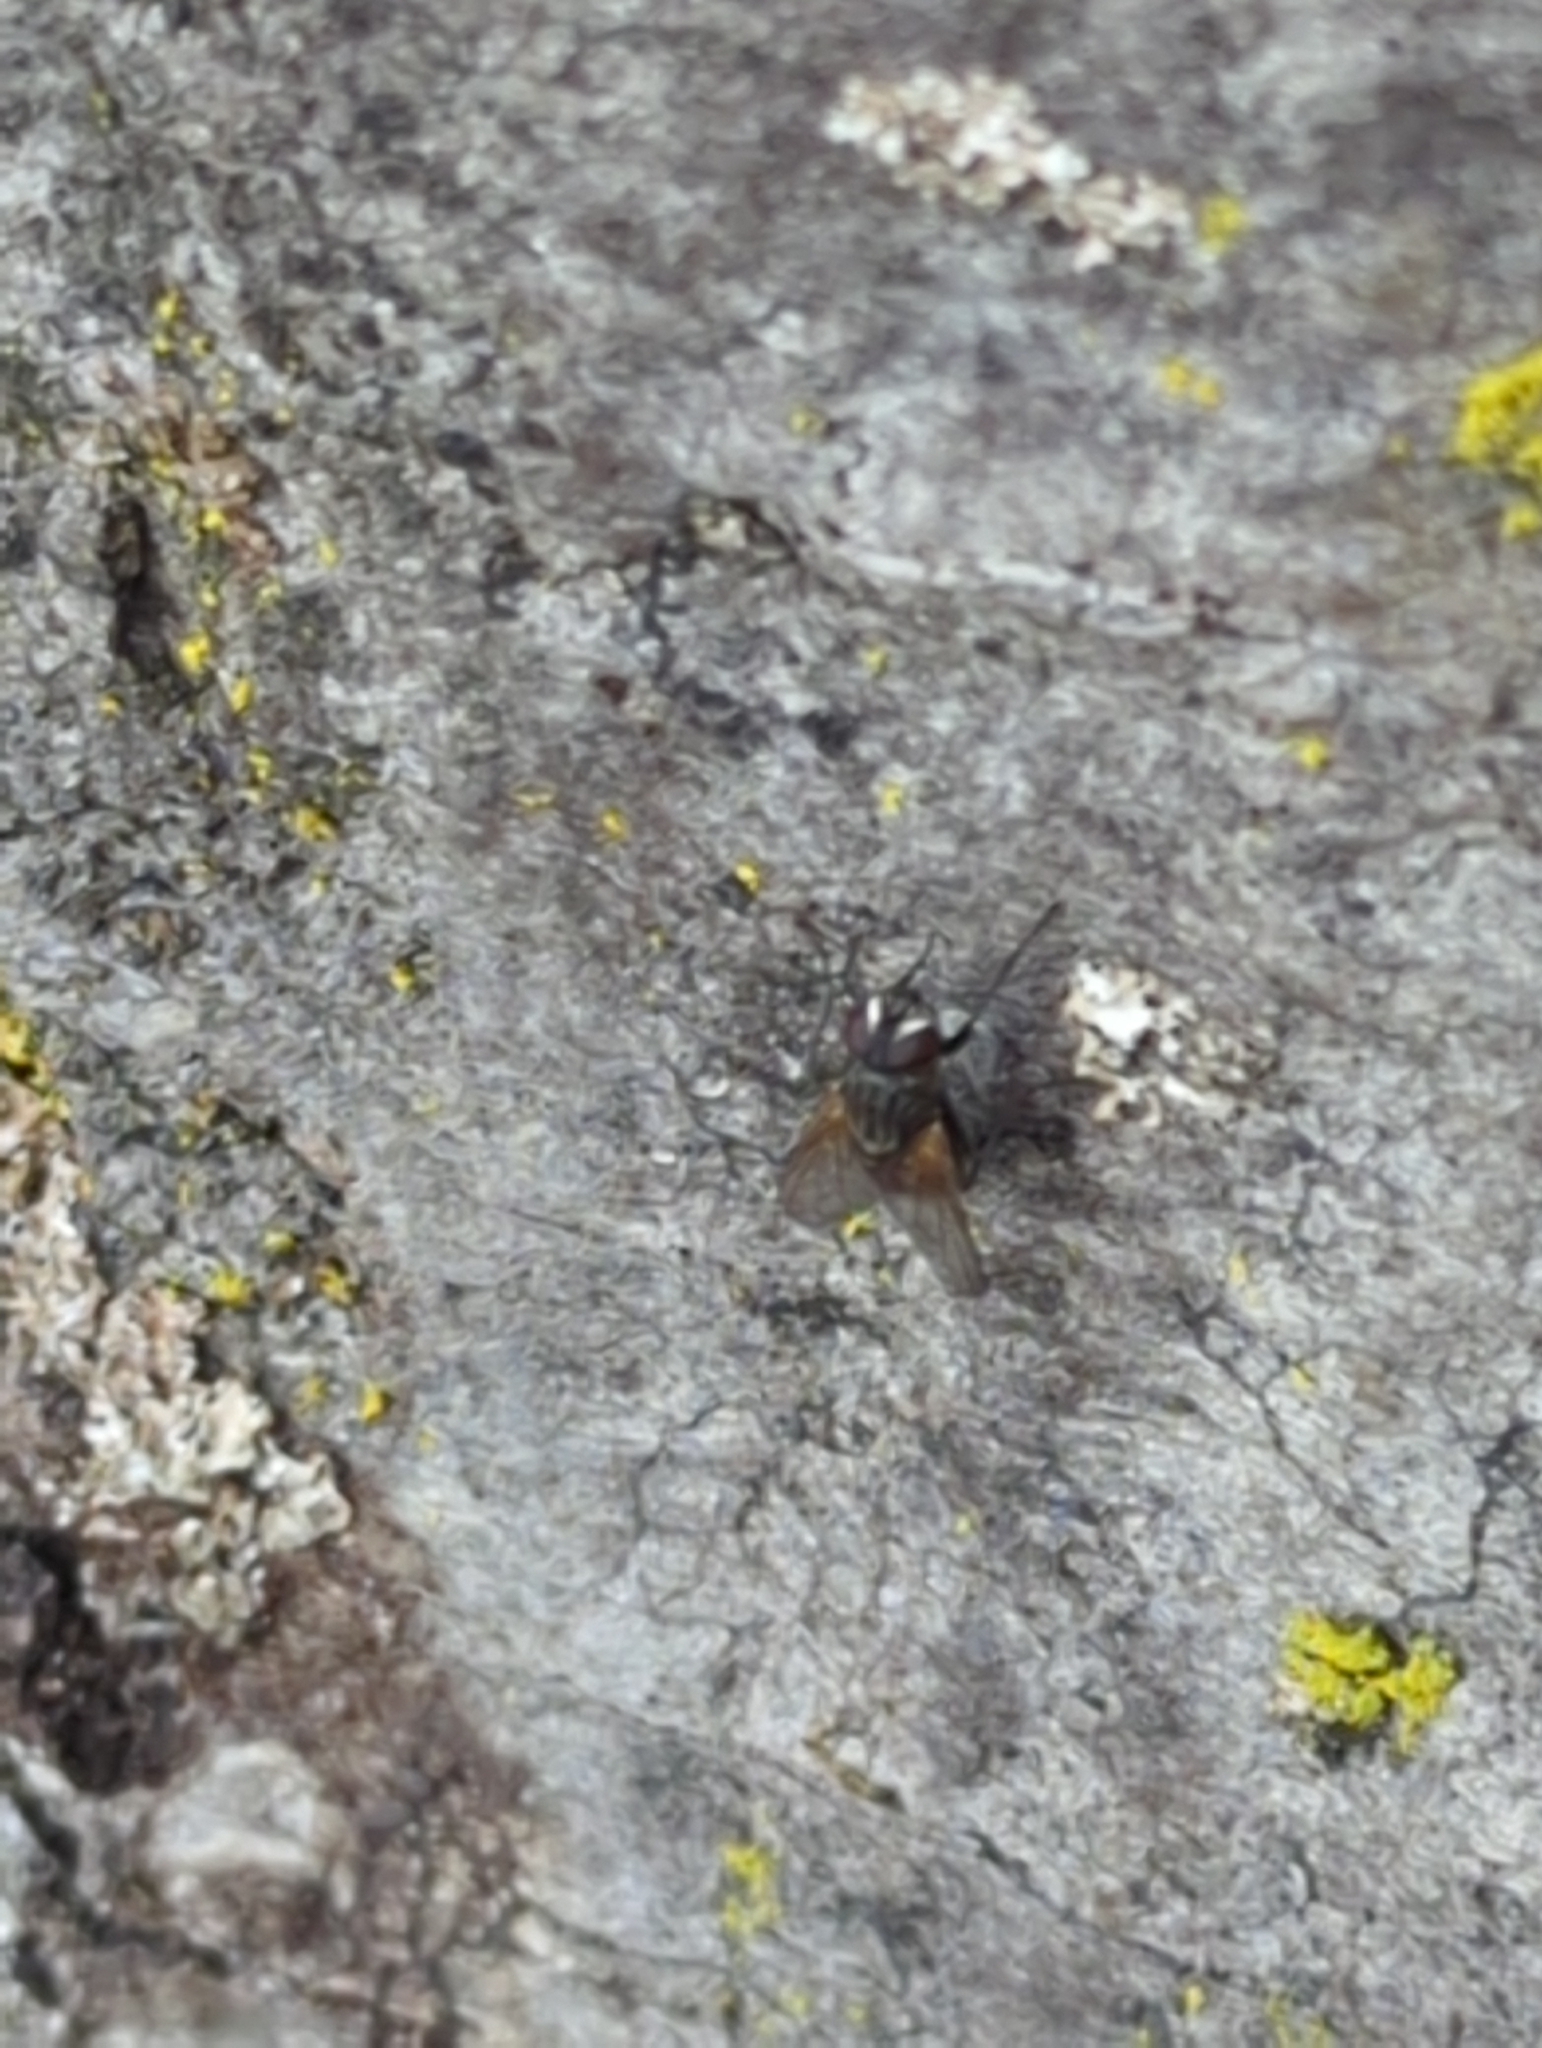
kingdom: Animalia
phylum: Arthropoda
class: Insecta
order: Diptera
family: Muscidae
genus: Musca
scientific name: Musca domestica
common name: House fly
